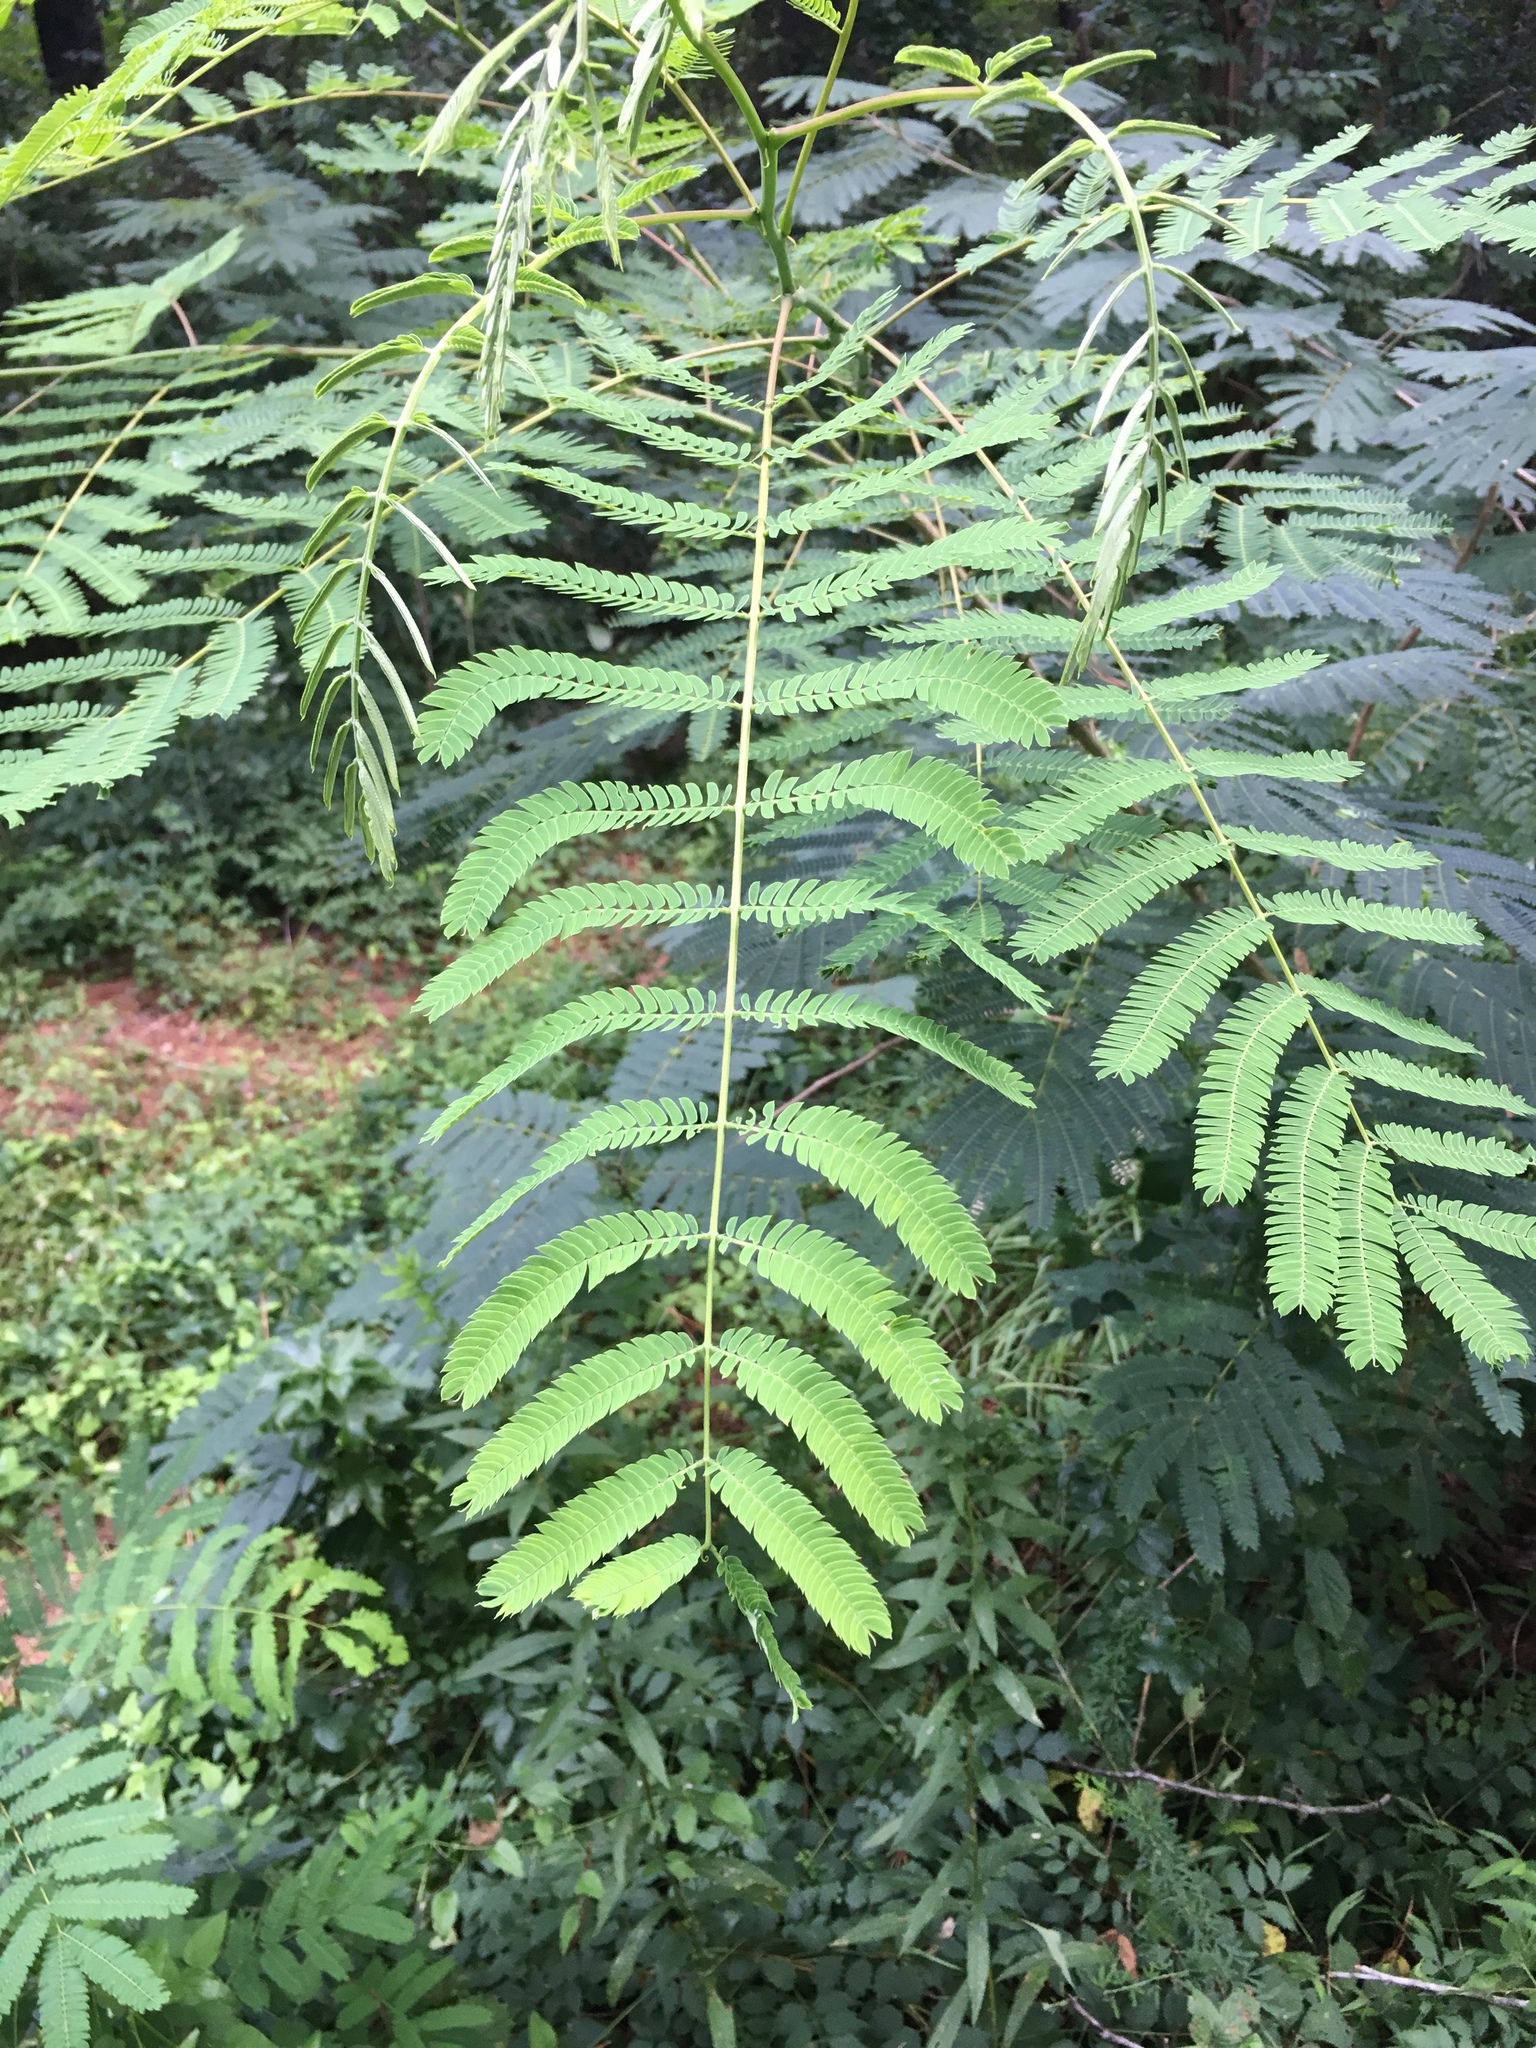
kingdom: Plantae
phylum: Tracheophyta
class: Magnoliopsida
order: Fabales
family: Fabaceae
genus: Albizia
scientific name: Albizia julibrissin
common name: Silktree
